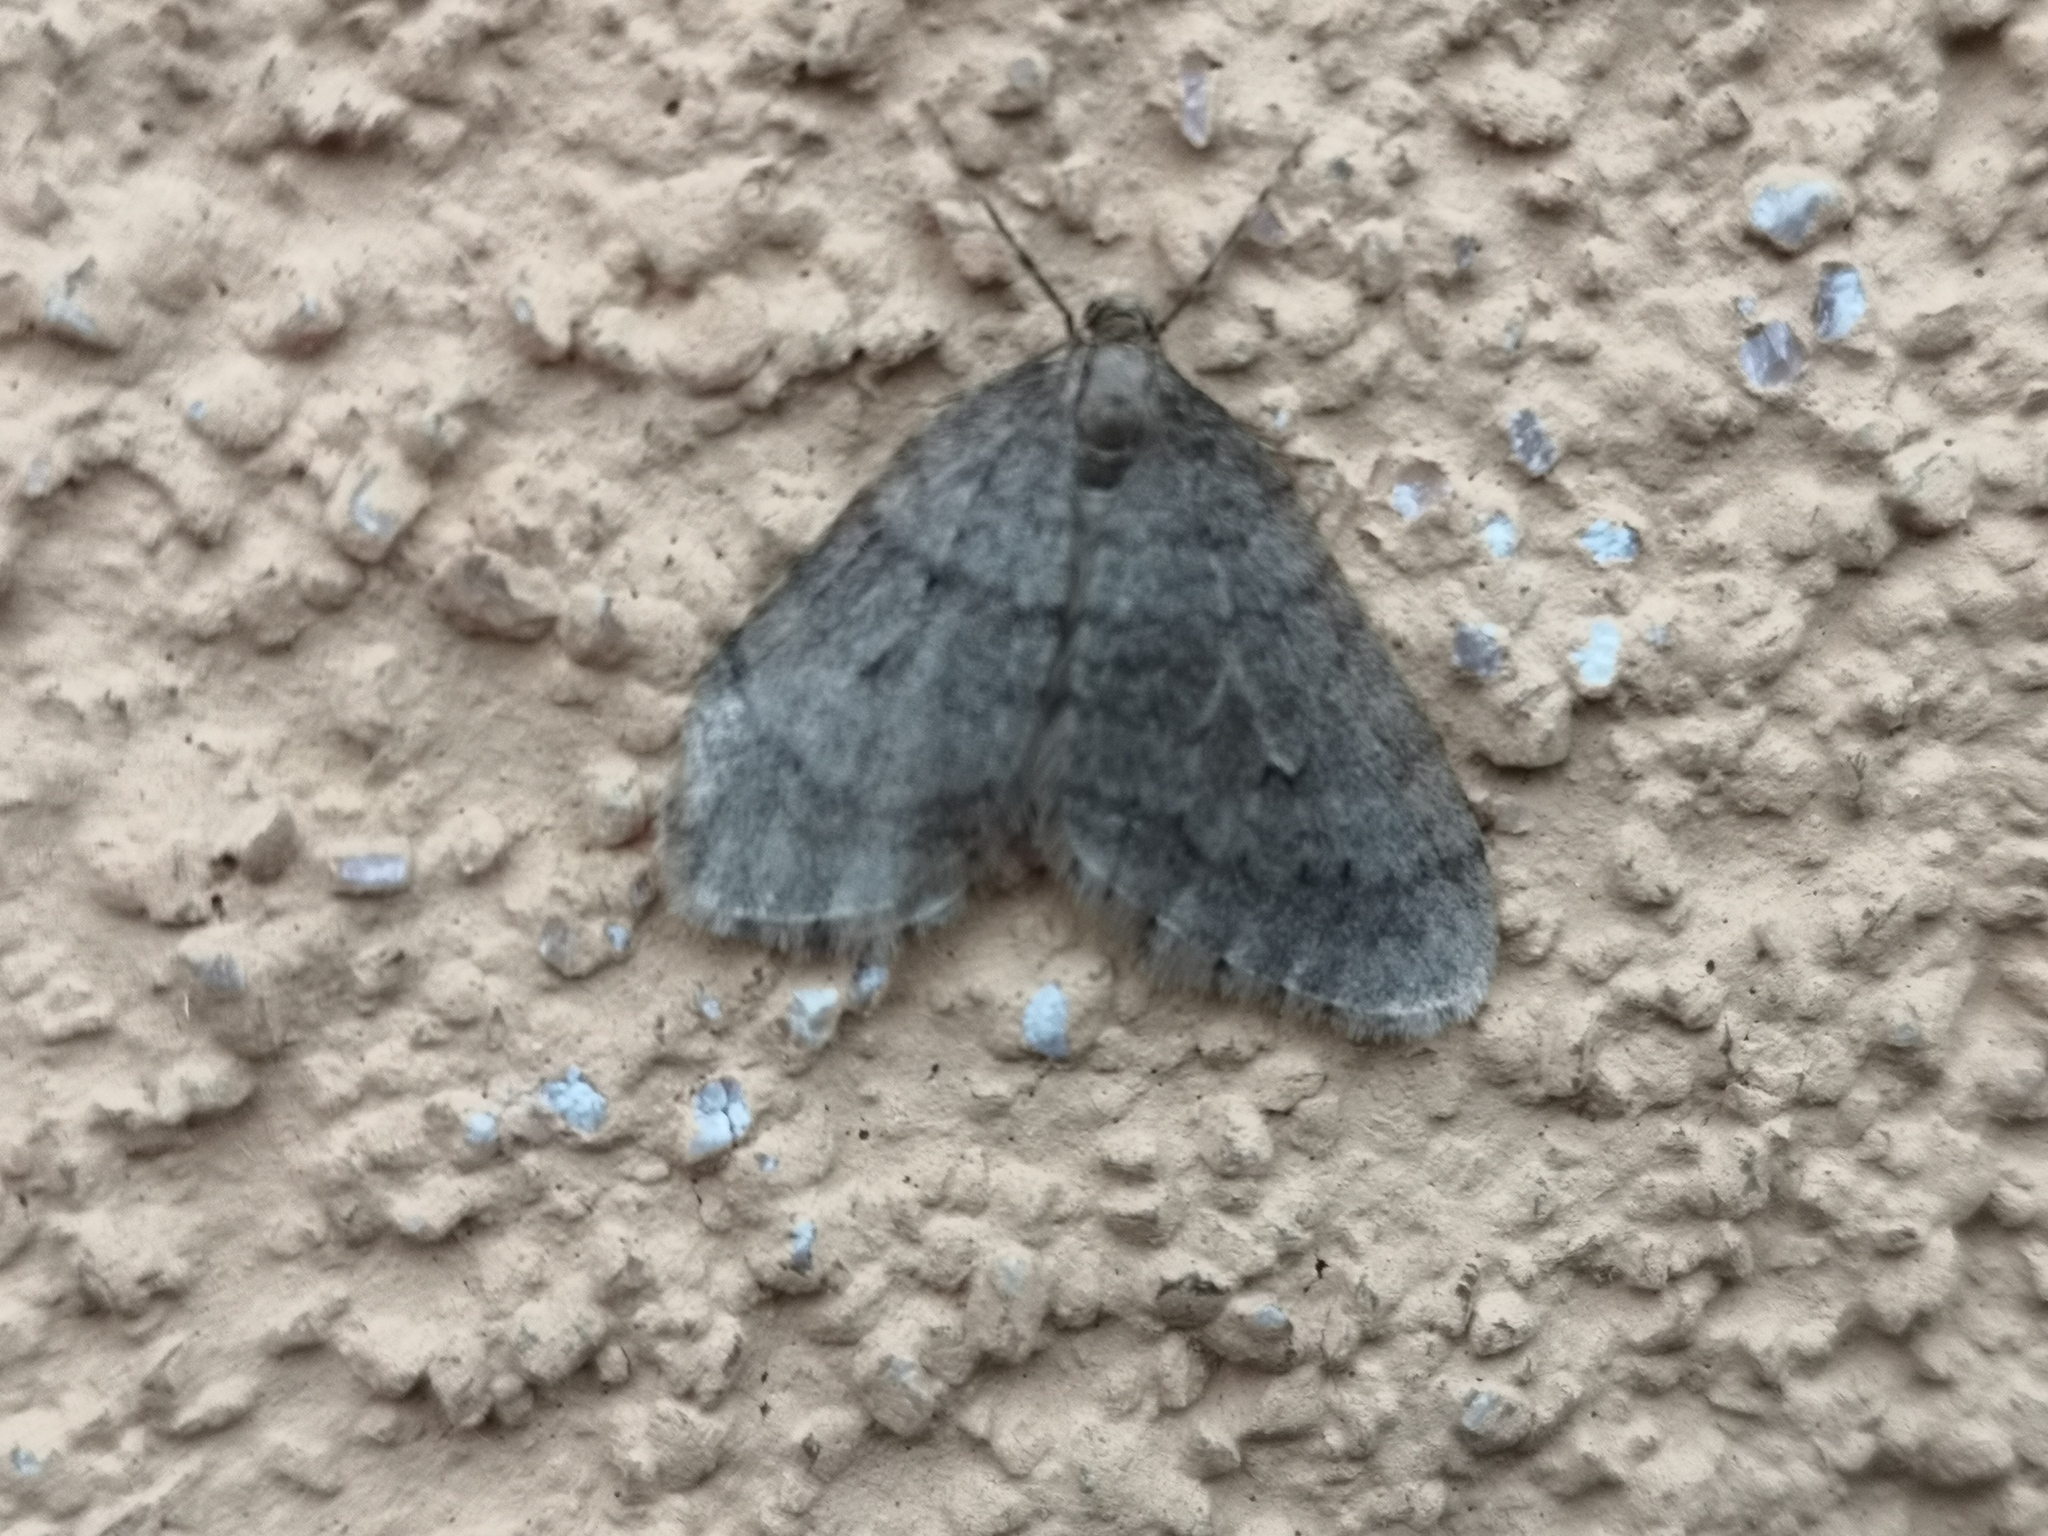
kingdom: Animalia
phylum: Arthropoda
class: Insecta
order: Lepidoptera
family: Geometridae
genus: Operophtera
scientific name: Operophtera brumata
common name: Winter moth
